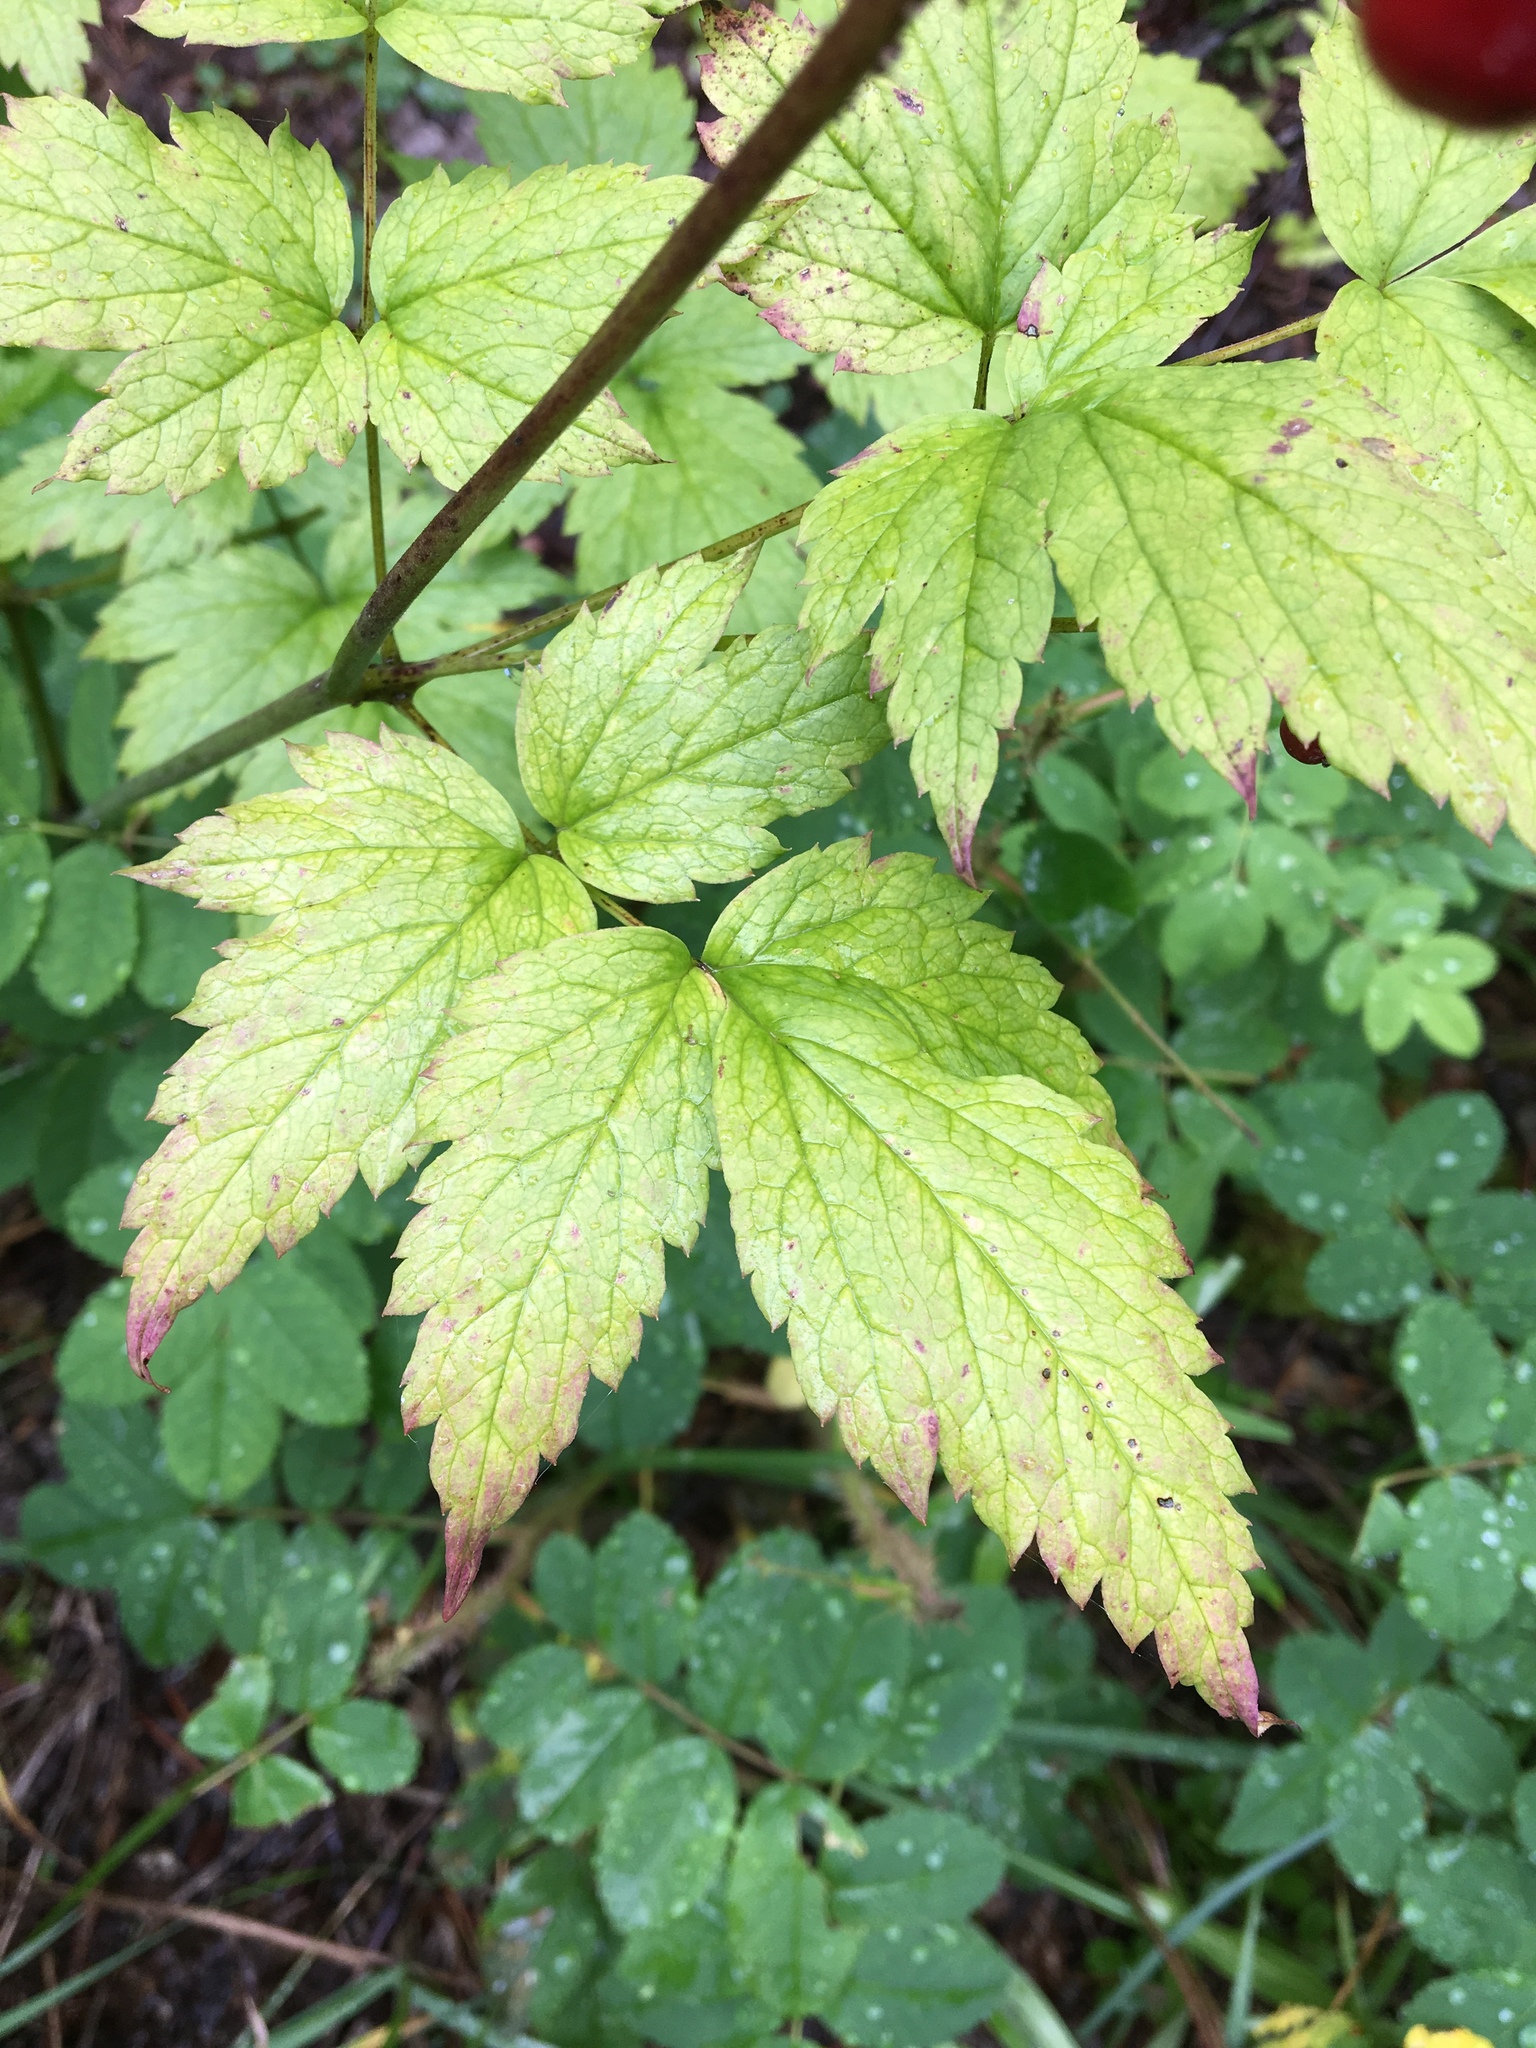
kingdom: Plantae
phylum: Tracheophyta
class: Magnoliopsida
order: Ranunculales
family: Ranunculaceae
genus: Actaea
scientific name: Actaea rubra
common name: Red baneberry
